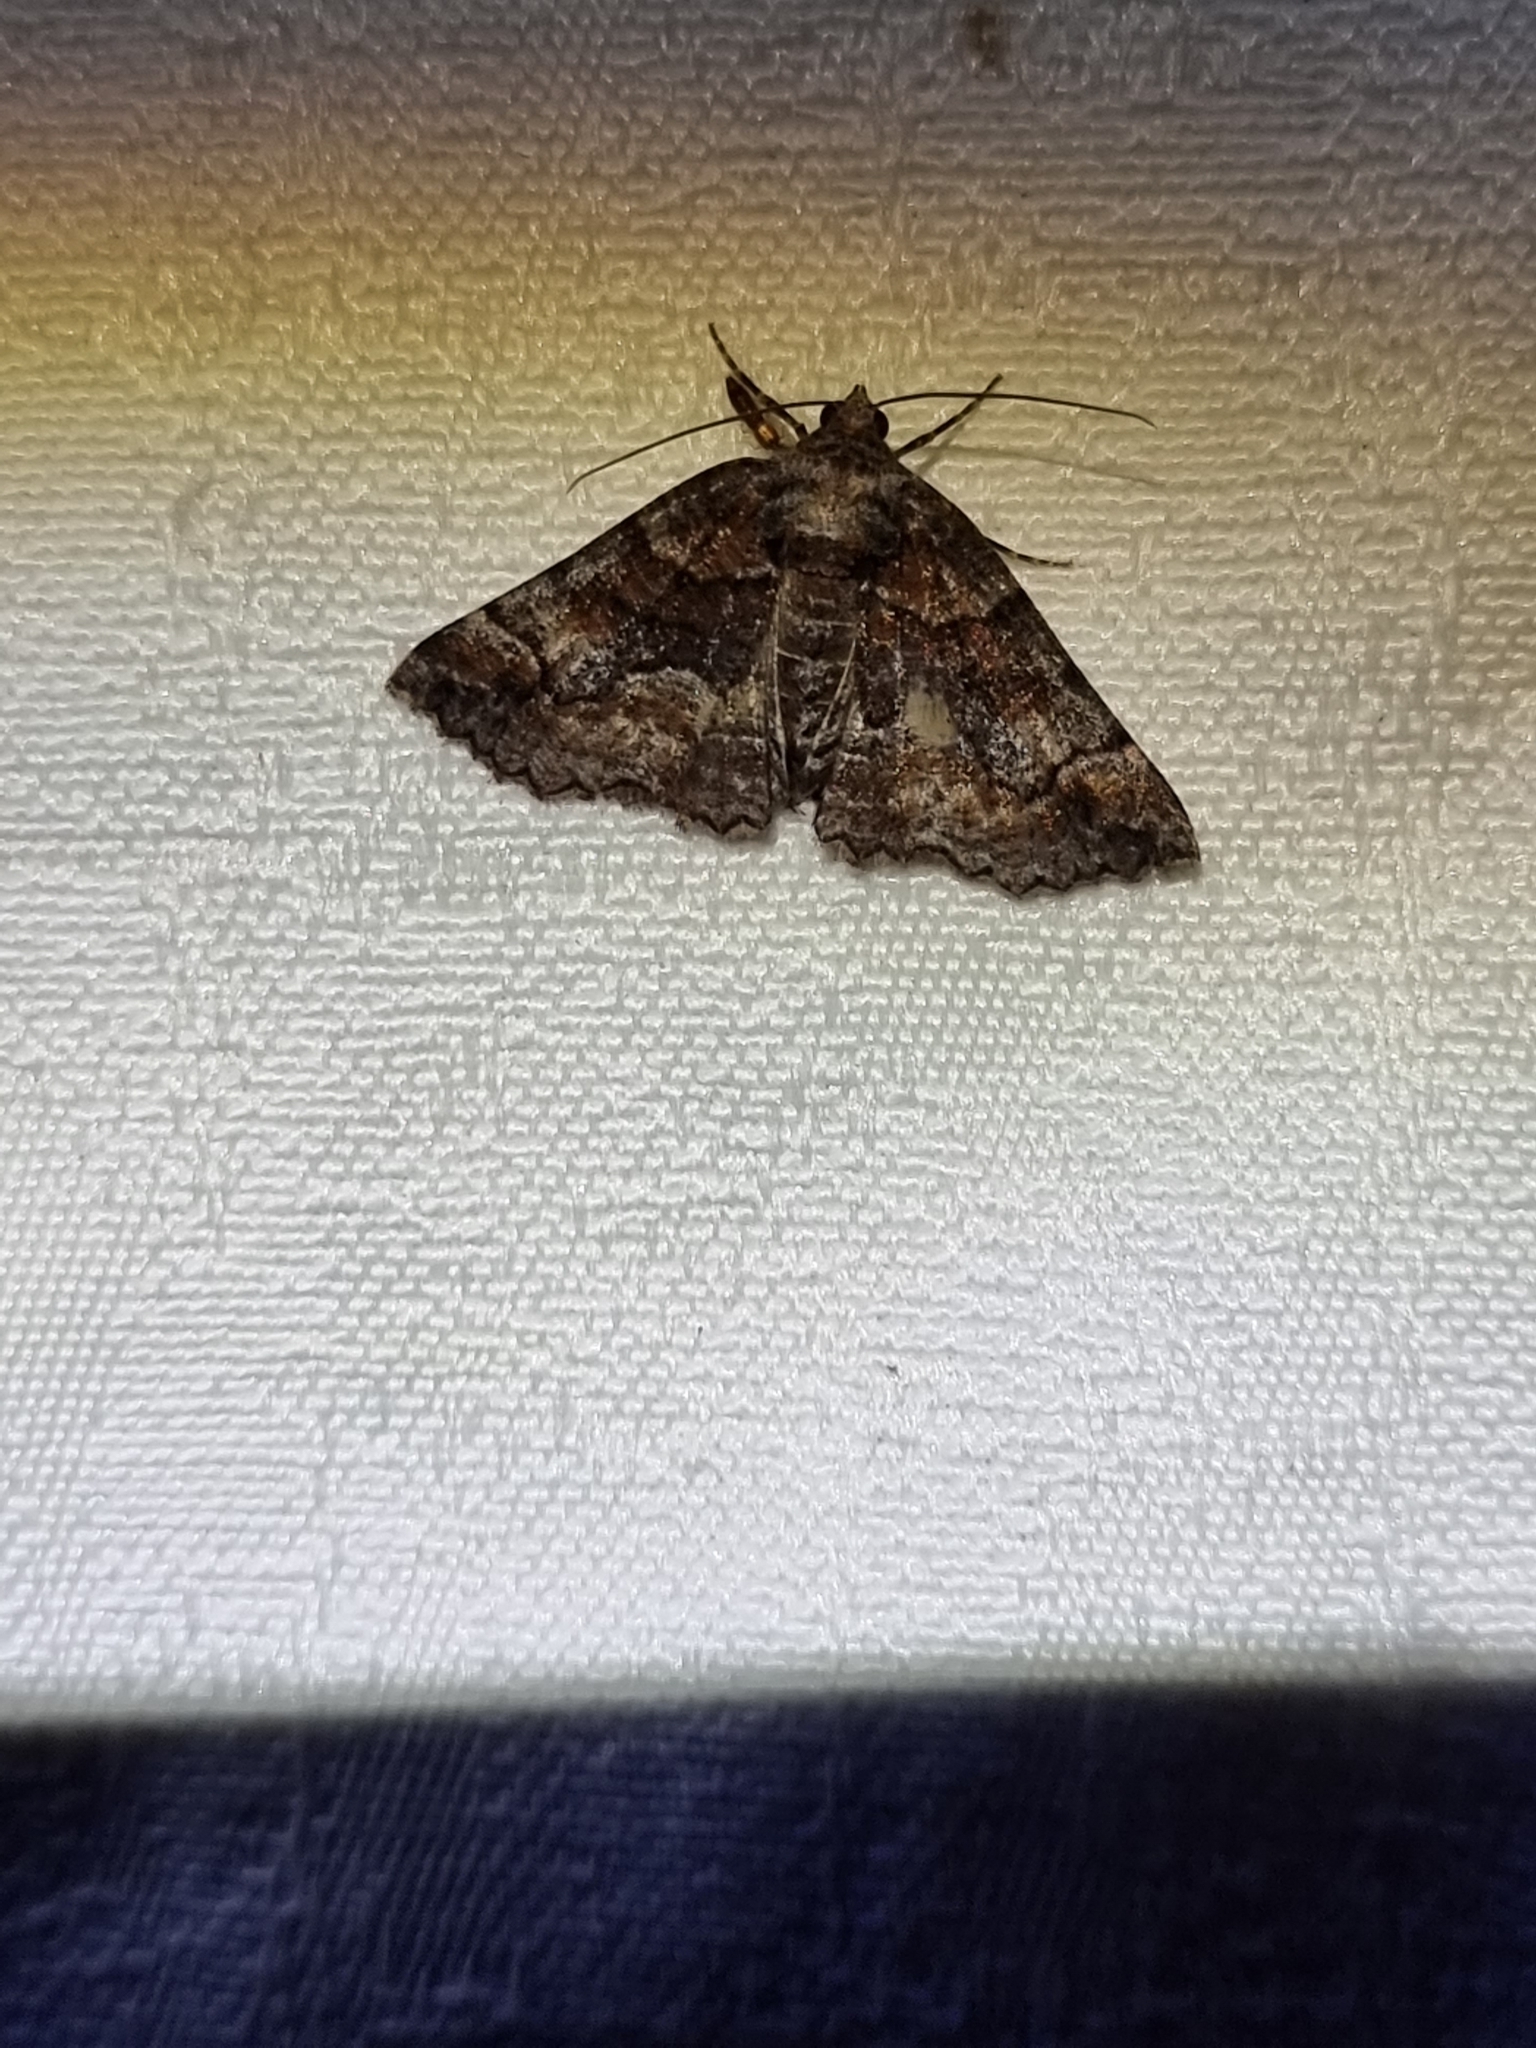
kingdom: Animalia
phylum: Arthropoda
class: Insecta
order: Lepidoptera
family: Geometridae
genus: Gastrina
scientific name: Gastrina cristaria
